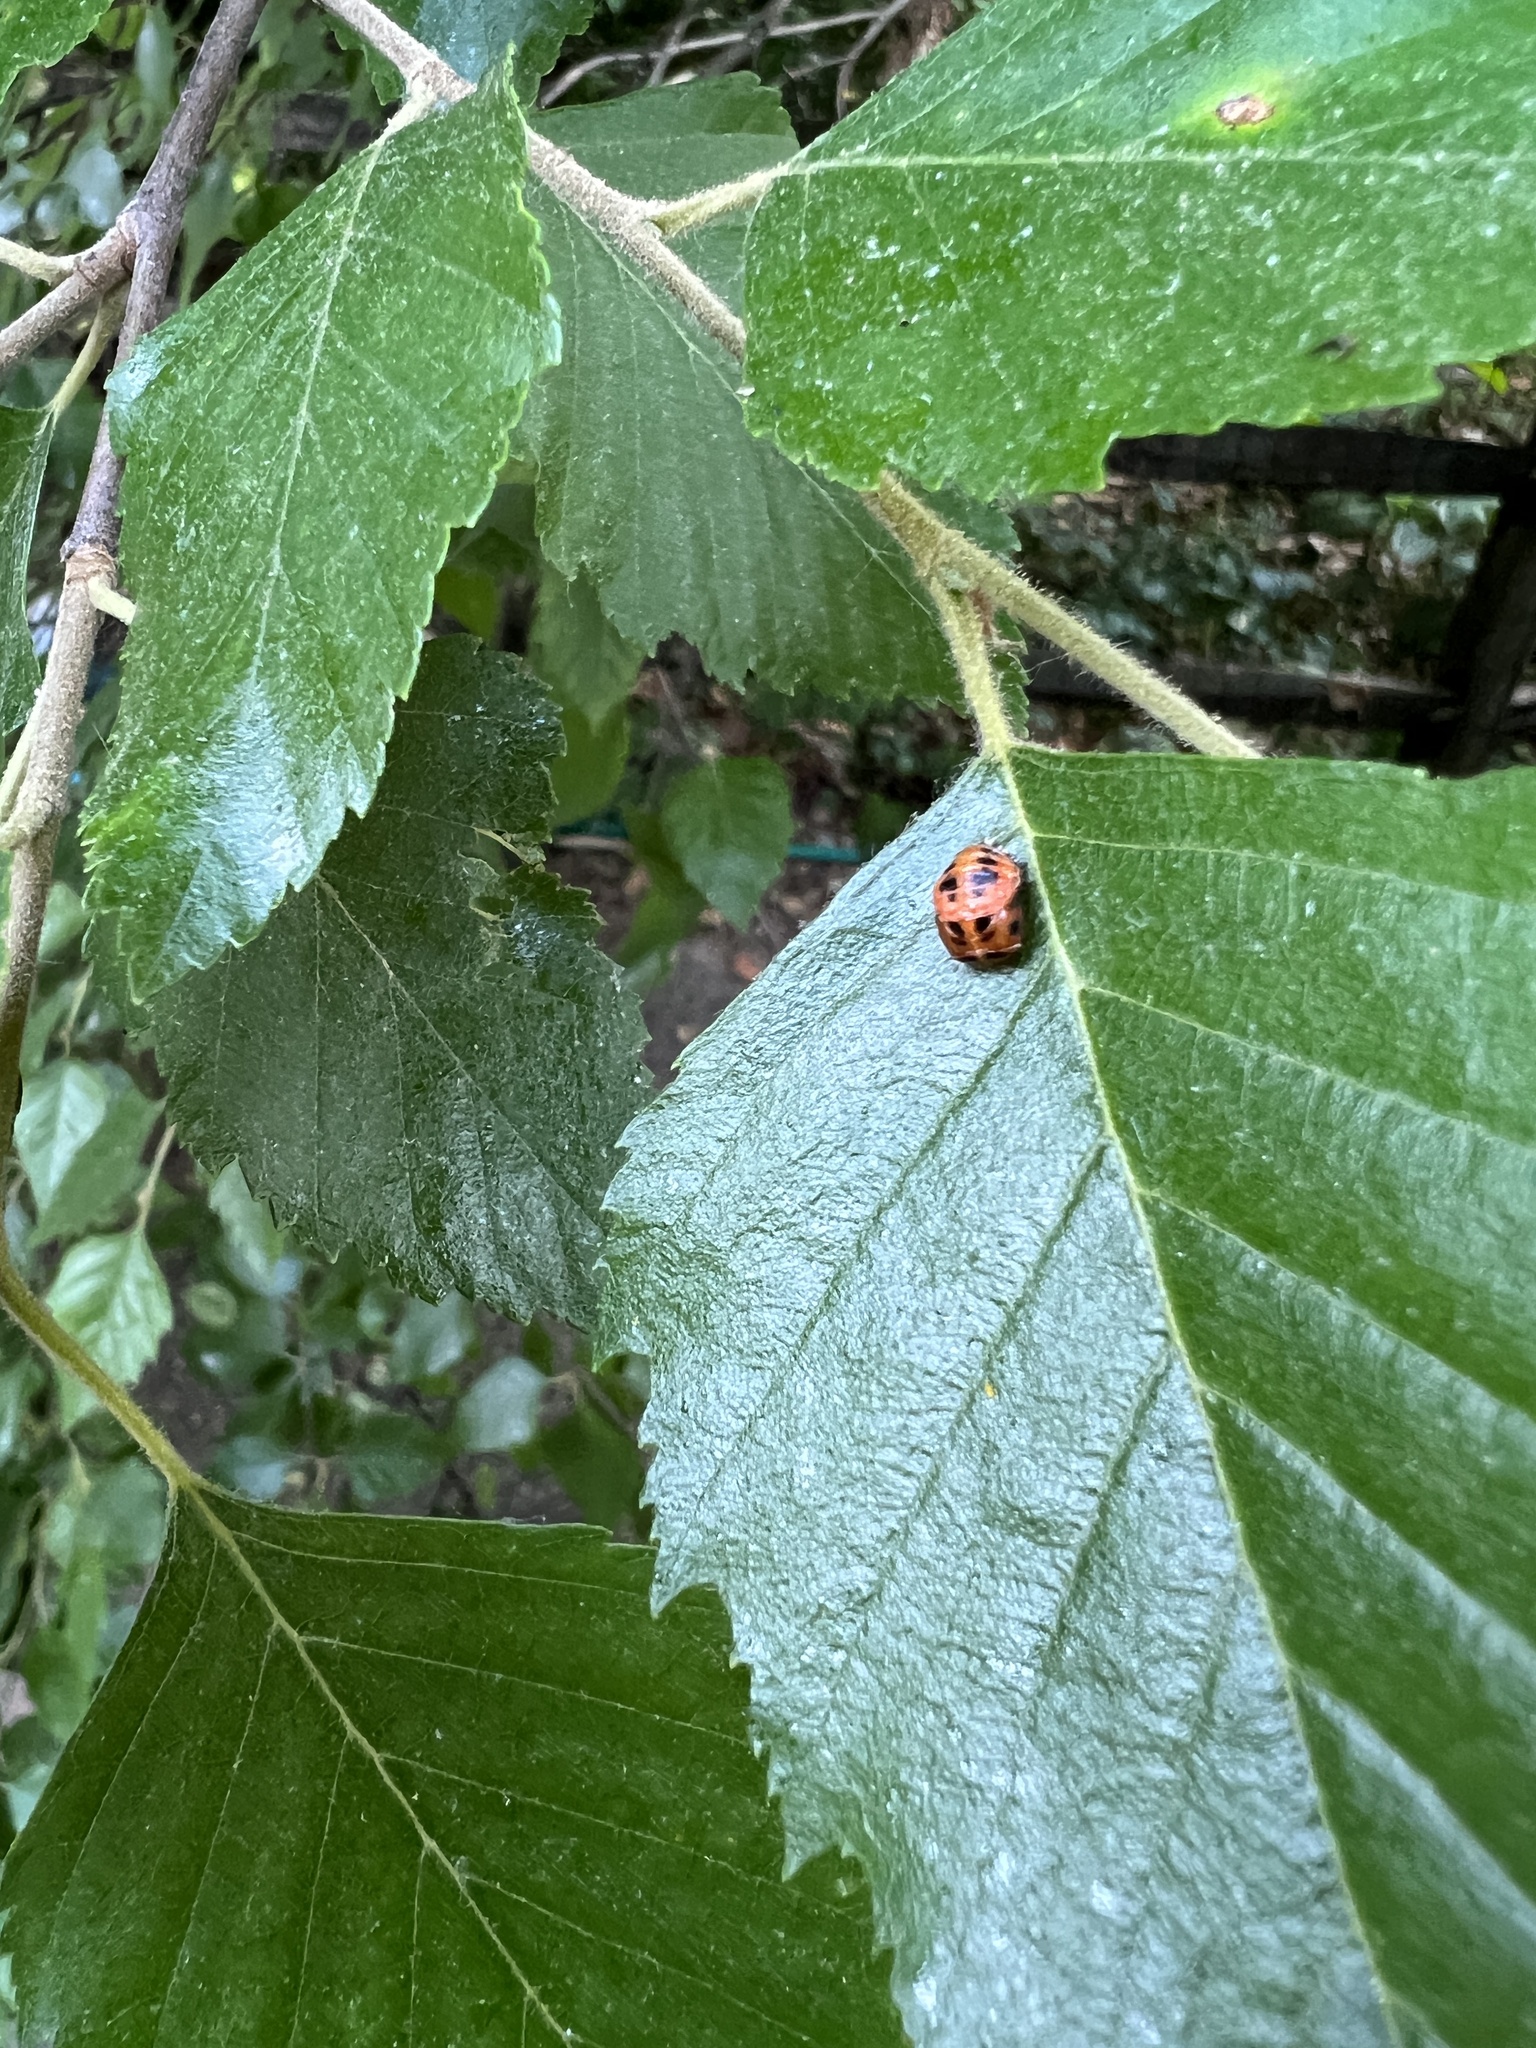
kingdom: Animalia
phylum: Arthropoda
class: Insecta
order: Coleoptera
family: Coccinellidae
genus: Harmonia
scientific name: Harmonia axyridis
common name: Harlequin ladybird
